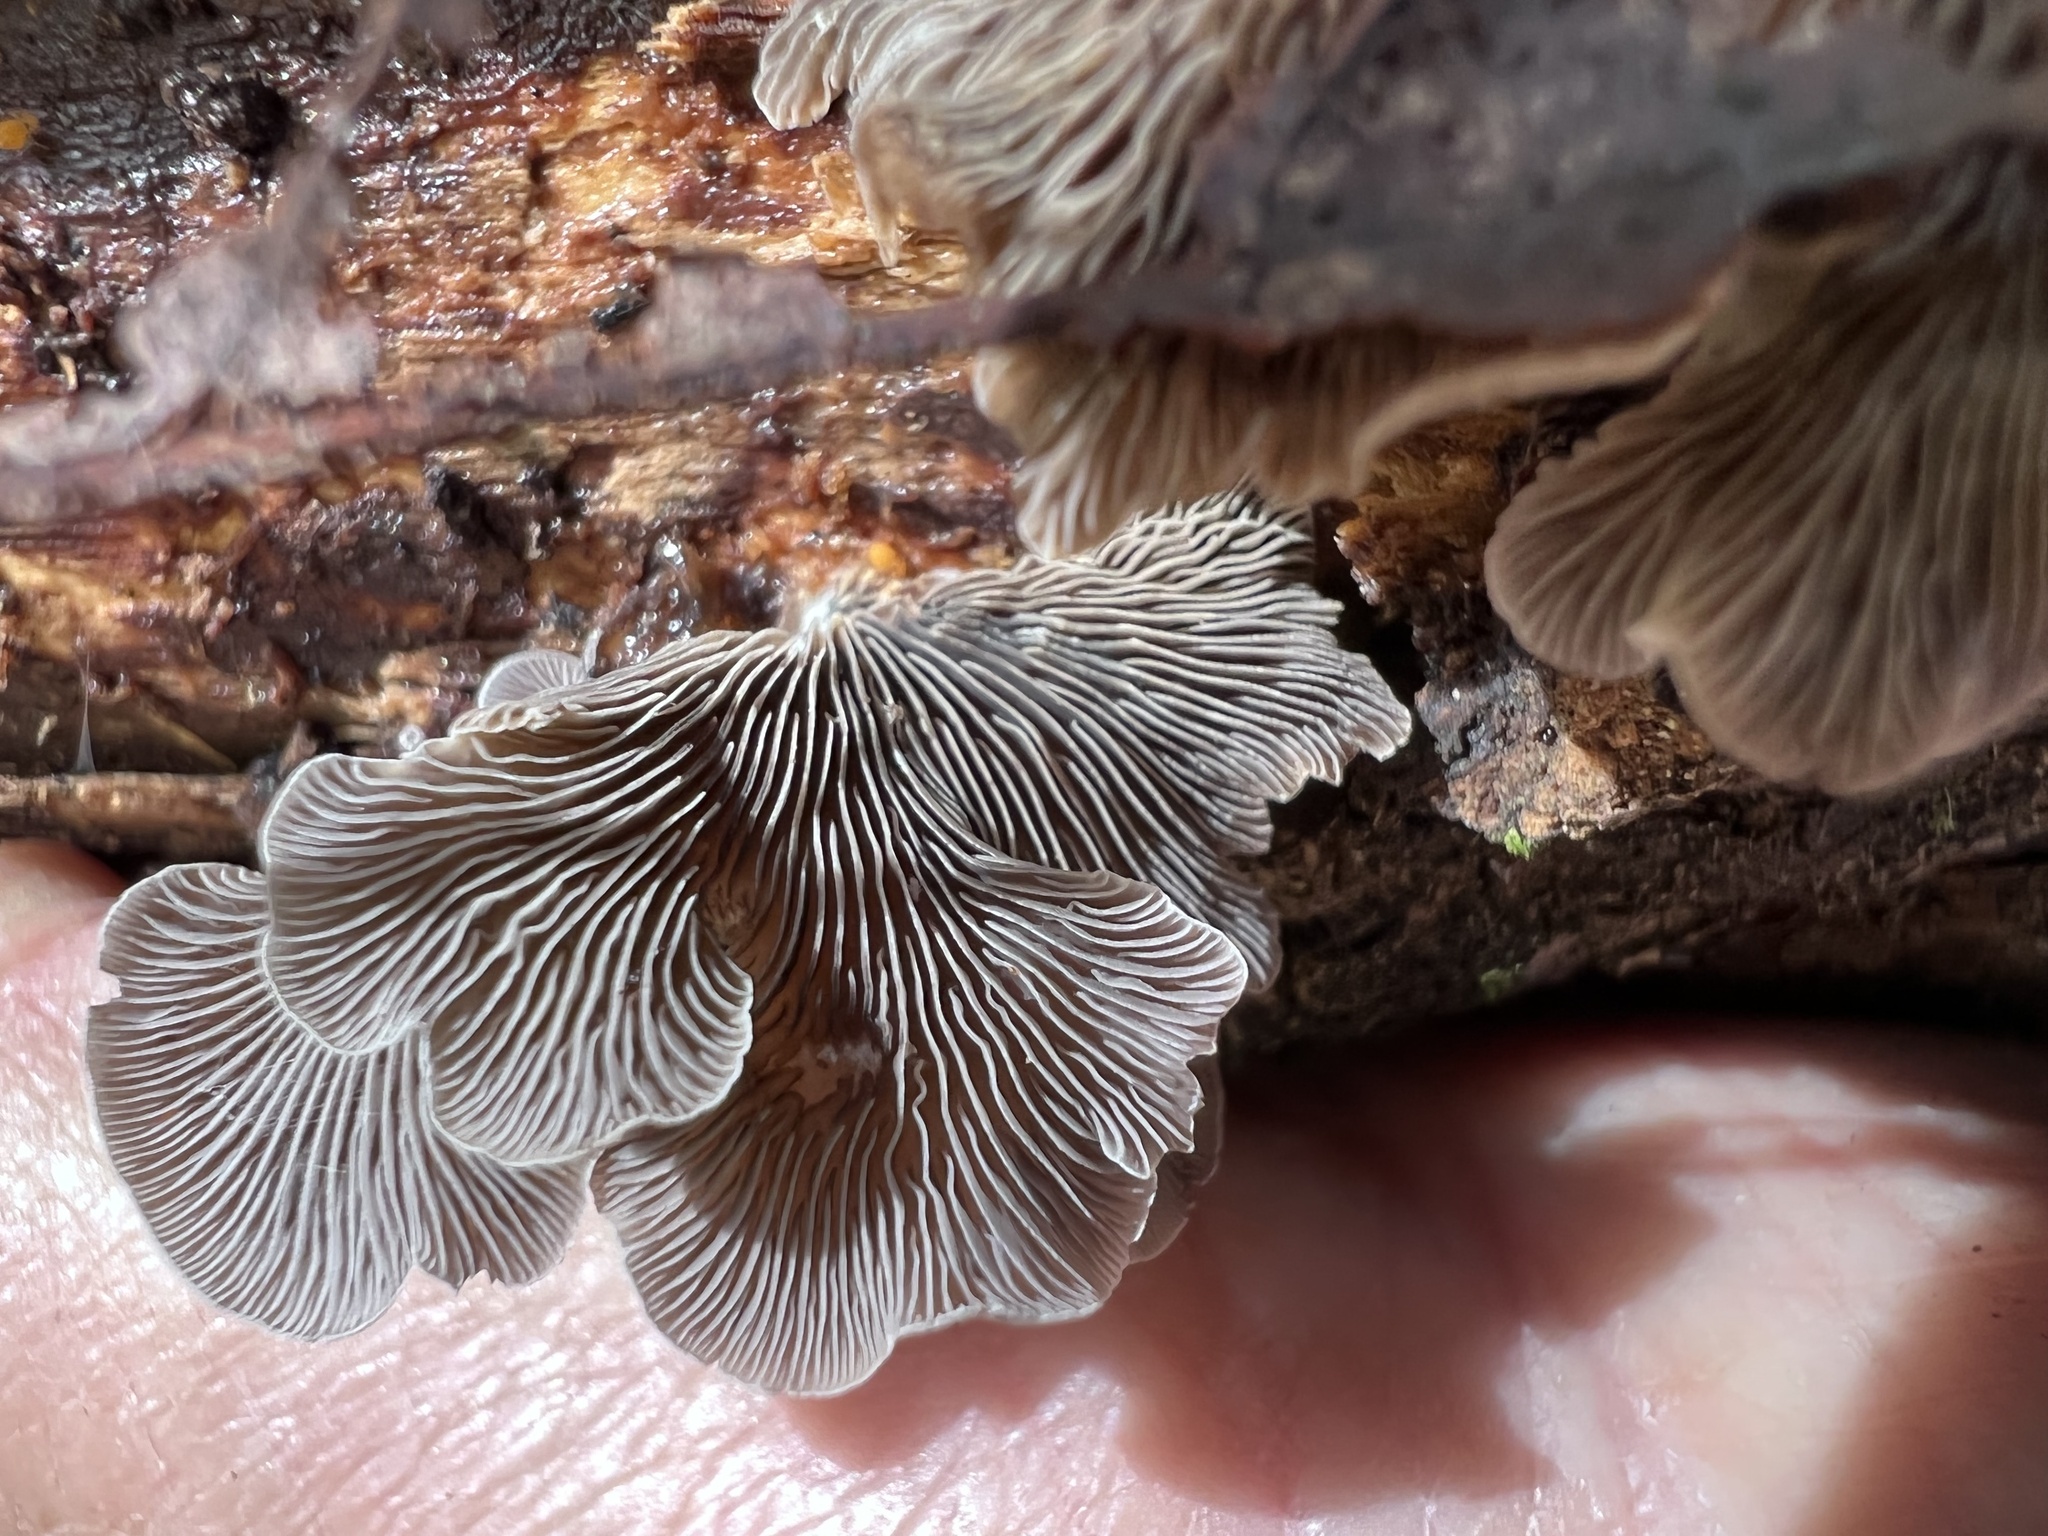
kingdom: Fungi
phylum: Basidiomycota
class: Agaricomycetes
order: Agaricales
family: Pleurotaceae
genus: Resupinatus
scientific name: Resupinatus applicatus
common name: Smoked oysterling
